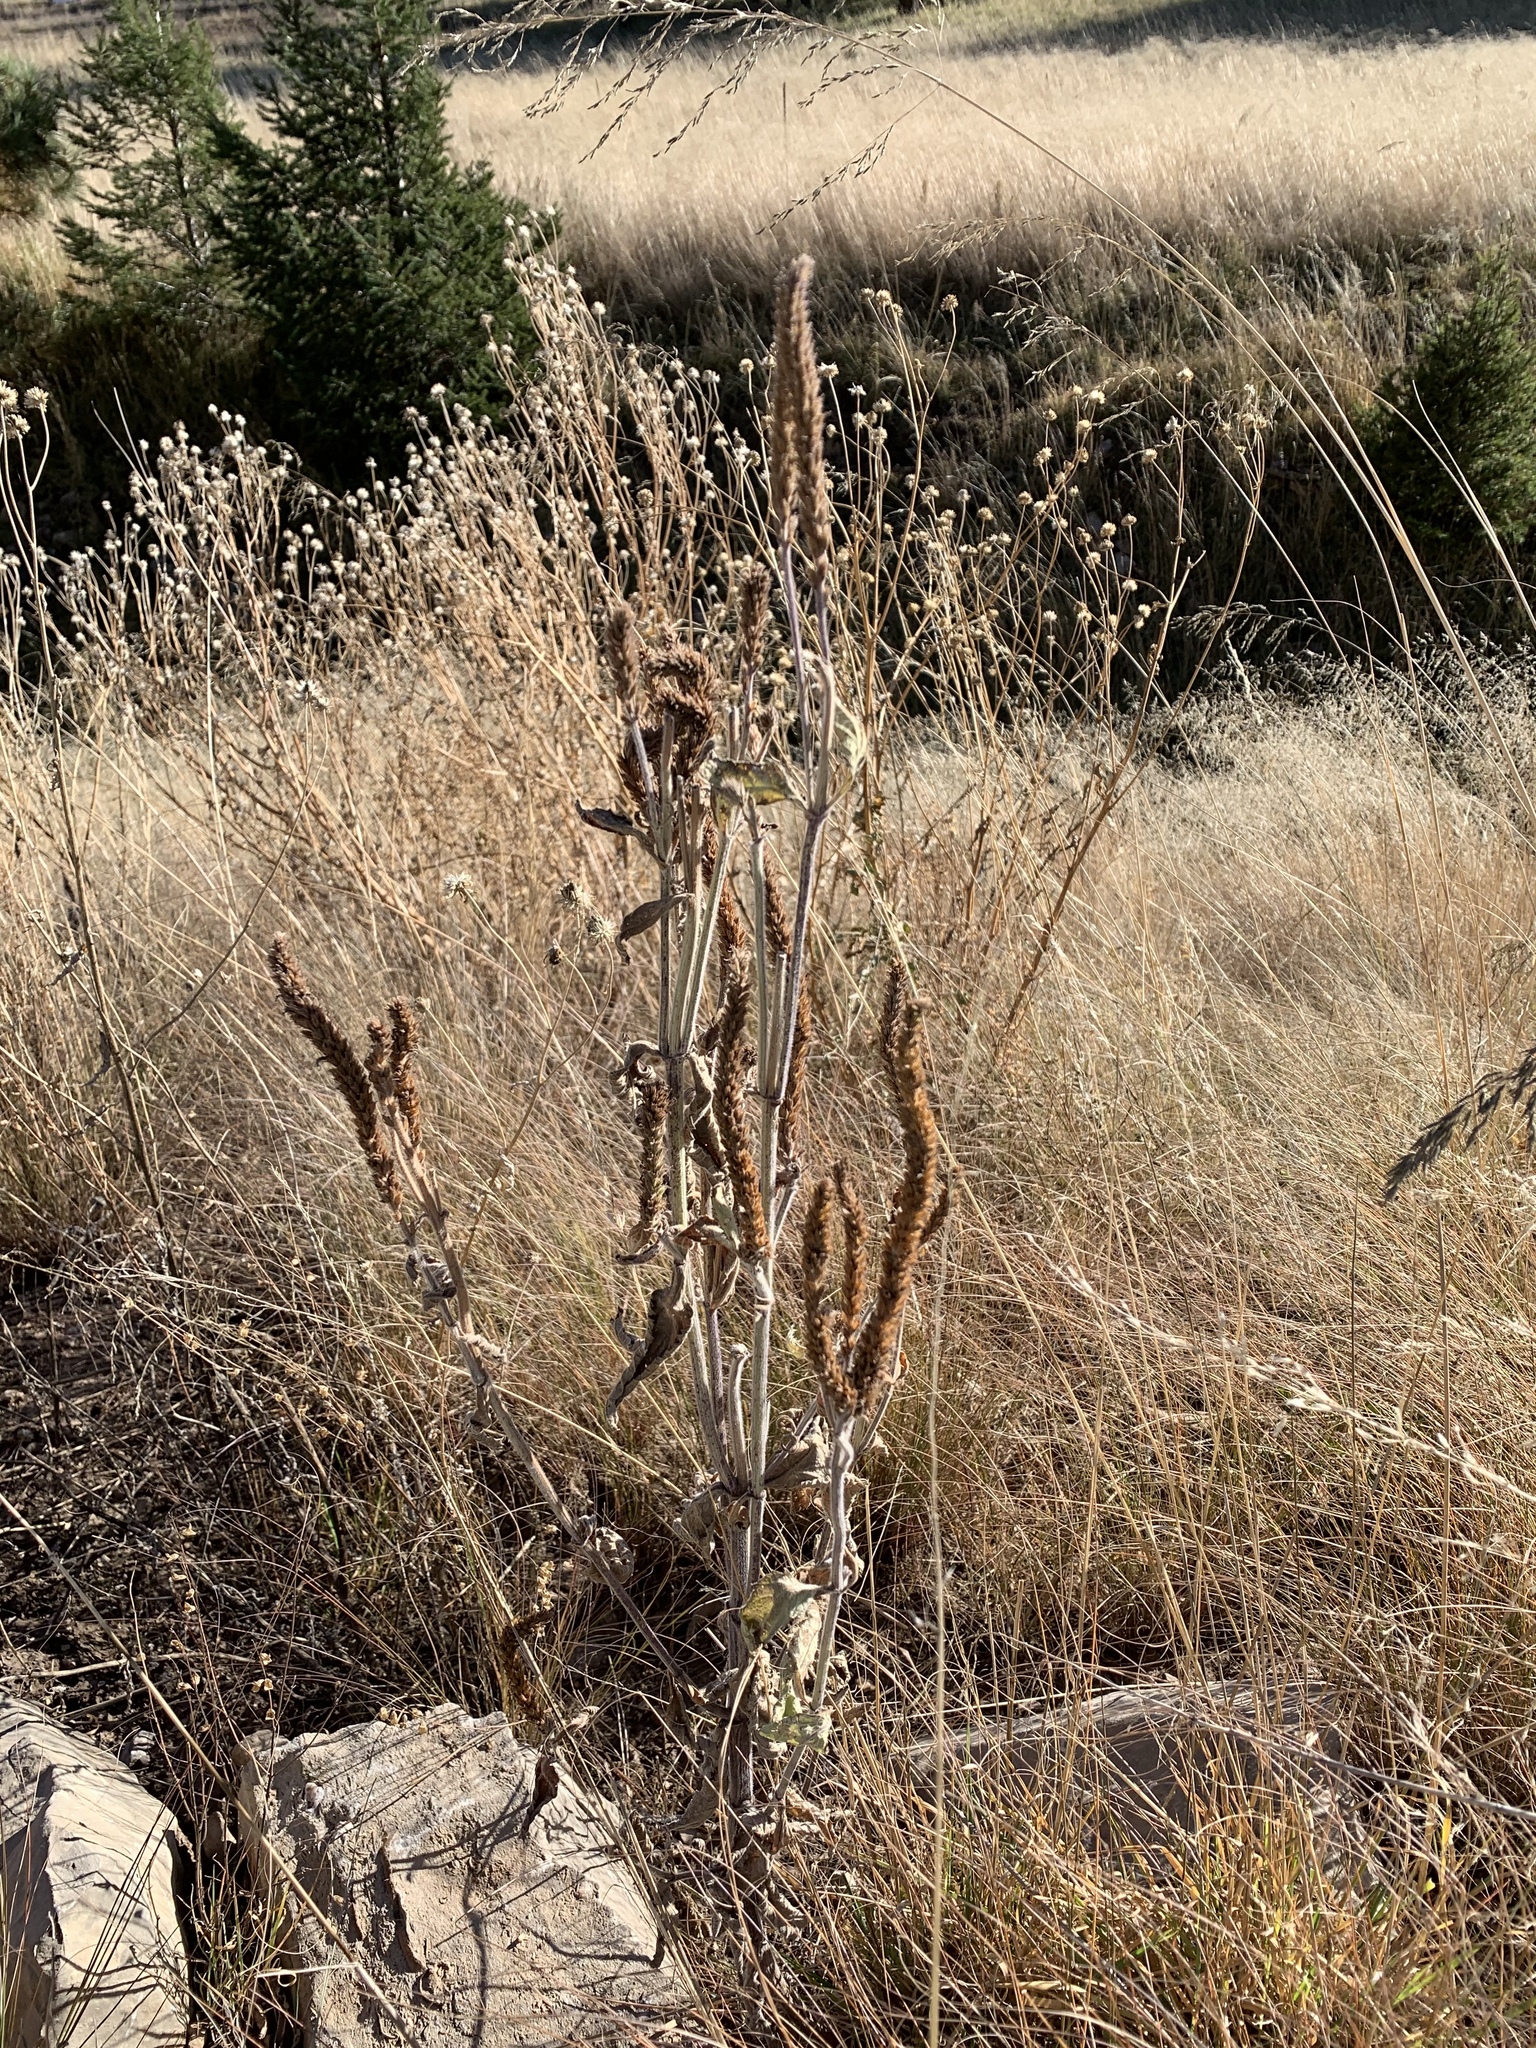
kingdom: Plantae
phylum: Tracheophyta
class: Magnoliopsida
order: Lamiales
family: Verbenaceae
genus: Verbena
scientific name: Verbena macdougalii
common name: New mexico vervain
